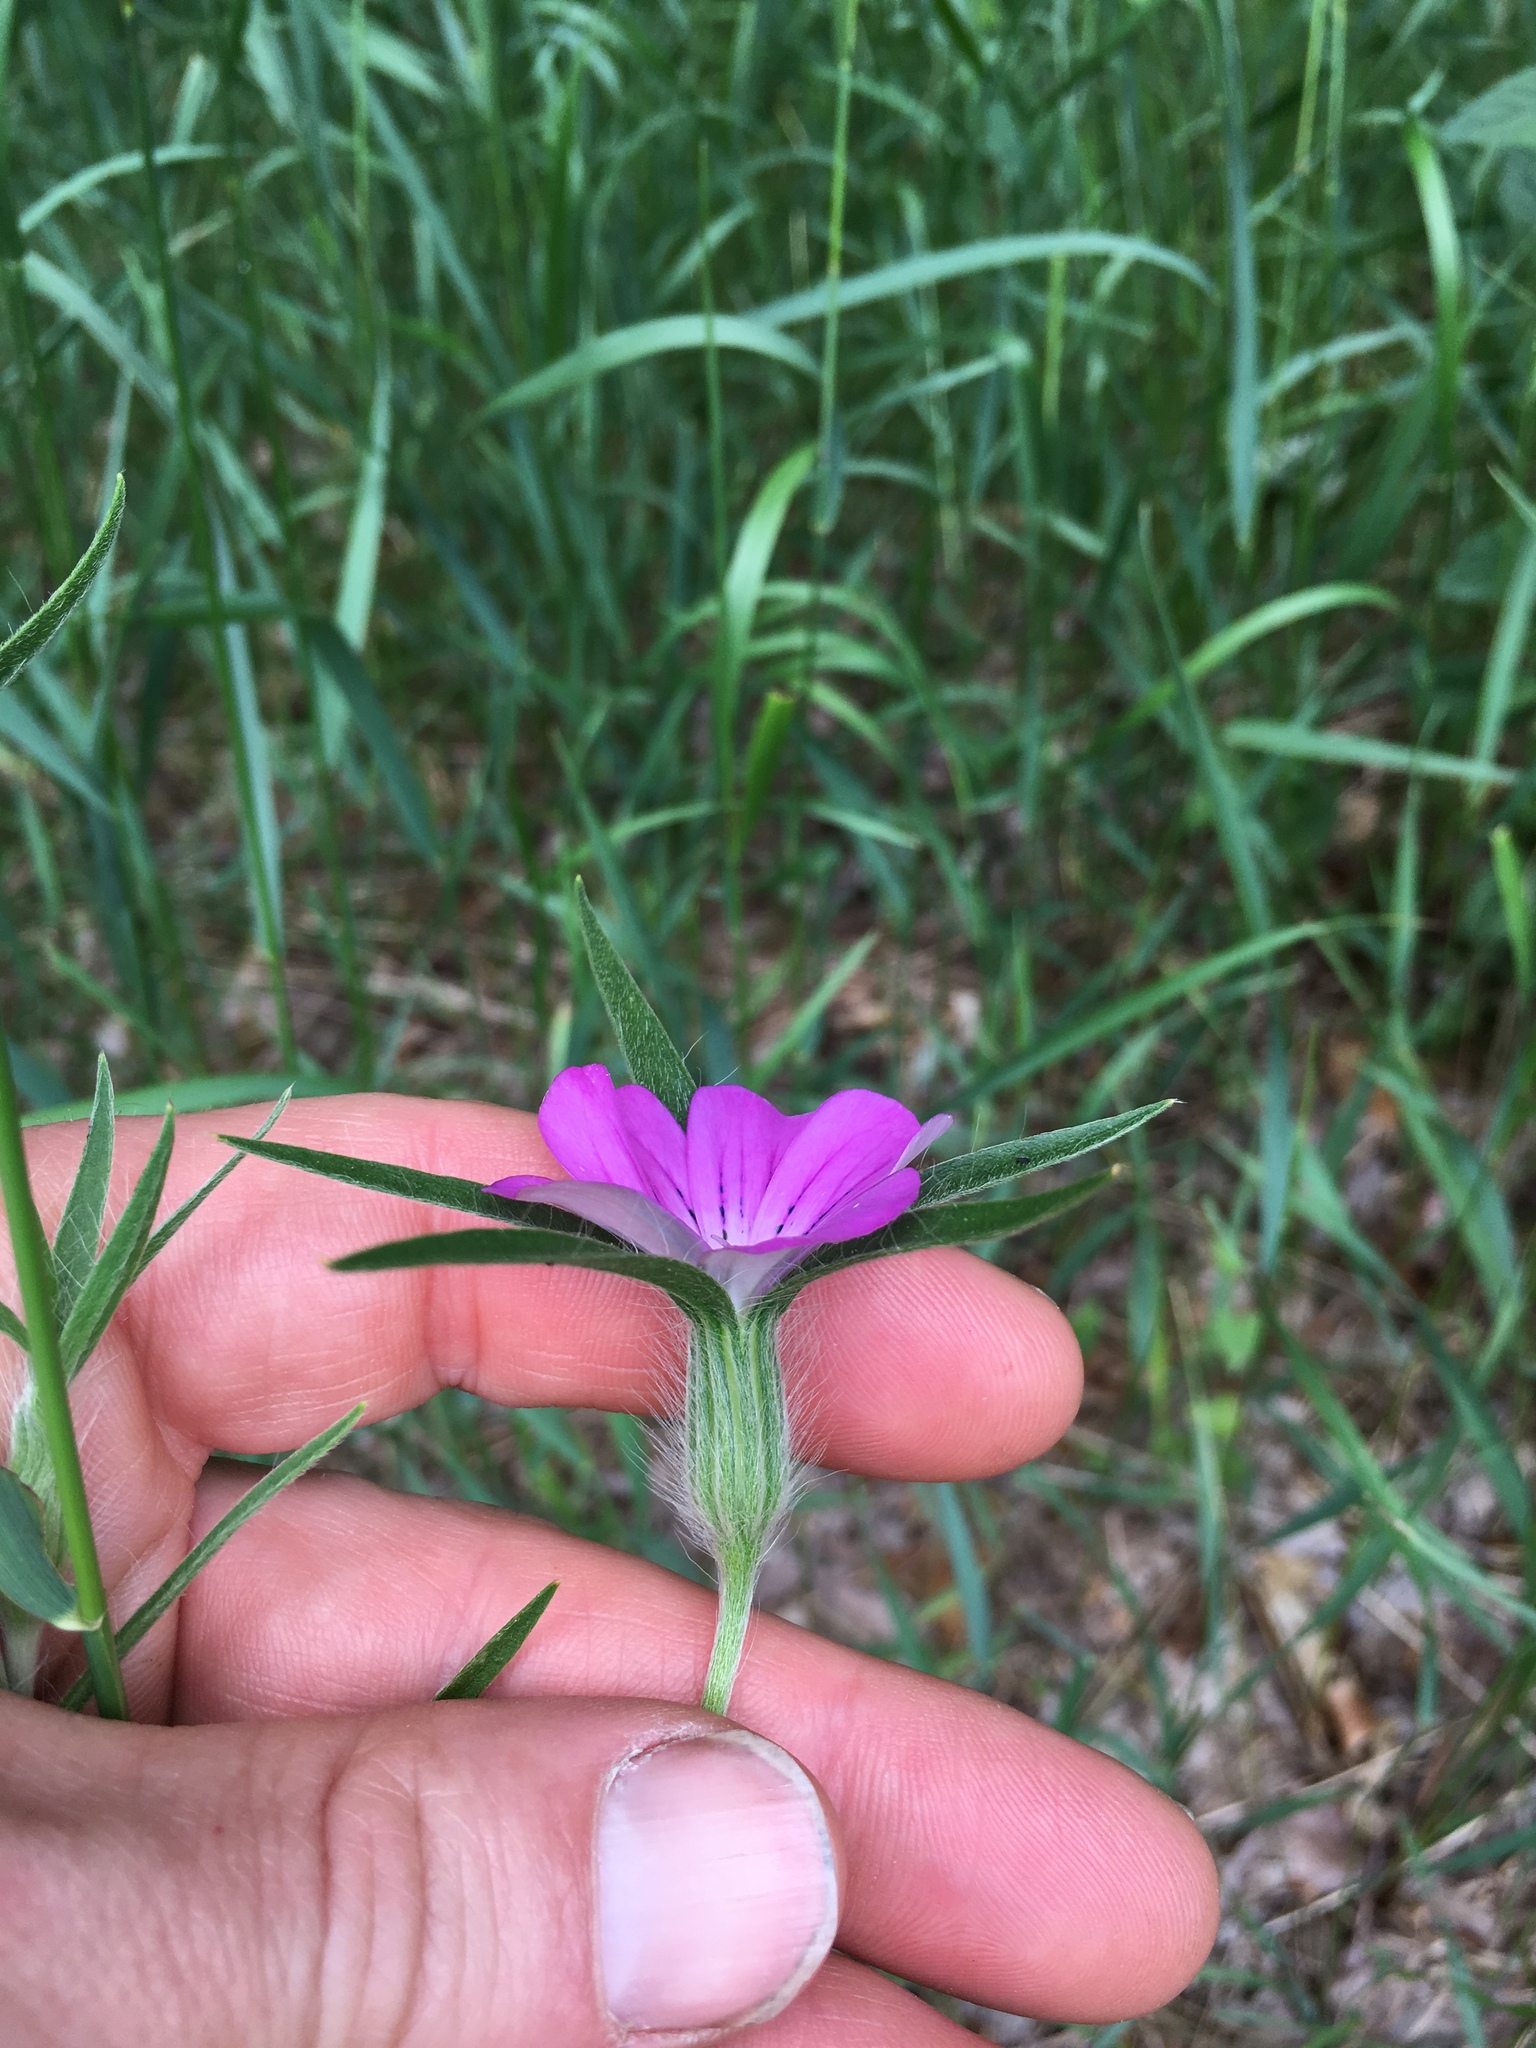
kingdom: Plantae
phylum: Tracheophyta
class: Magnoliopsida
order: Caryophyllales
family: Caryophyllaceae
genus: Agrostemma
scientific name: Agrostemma githago
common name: Common corncockle
